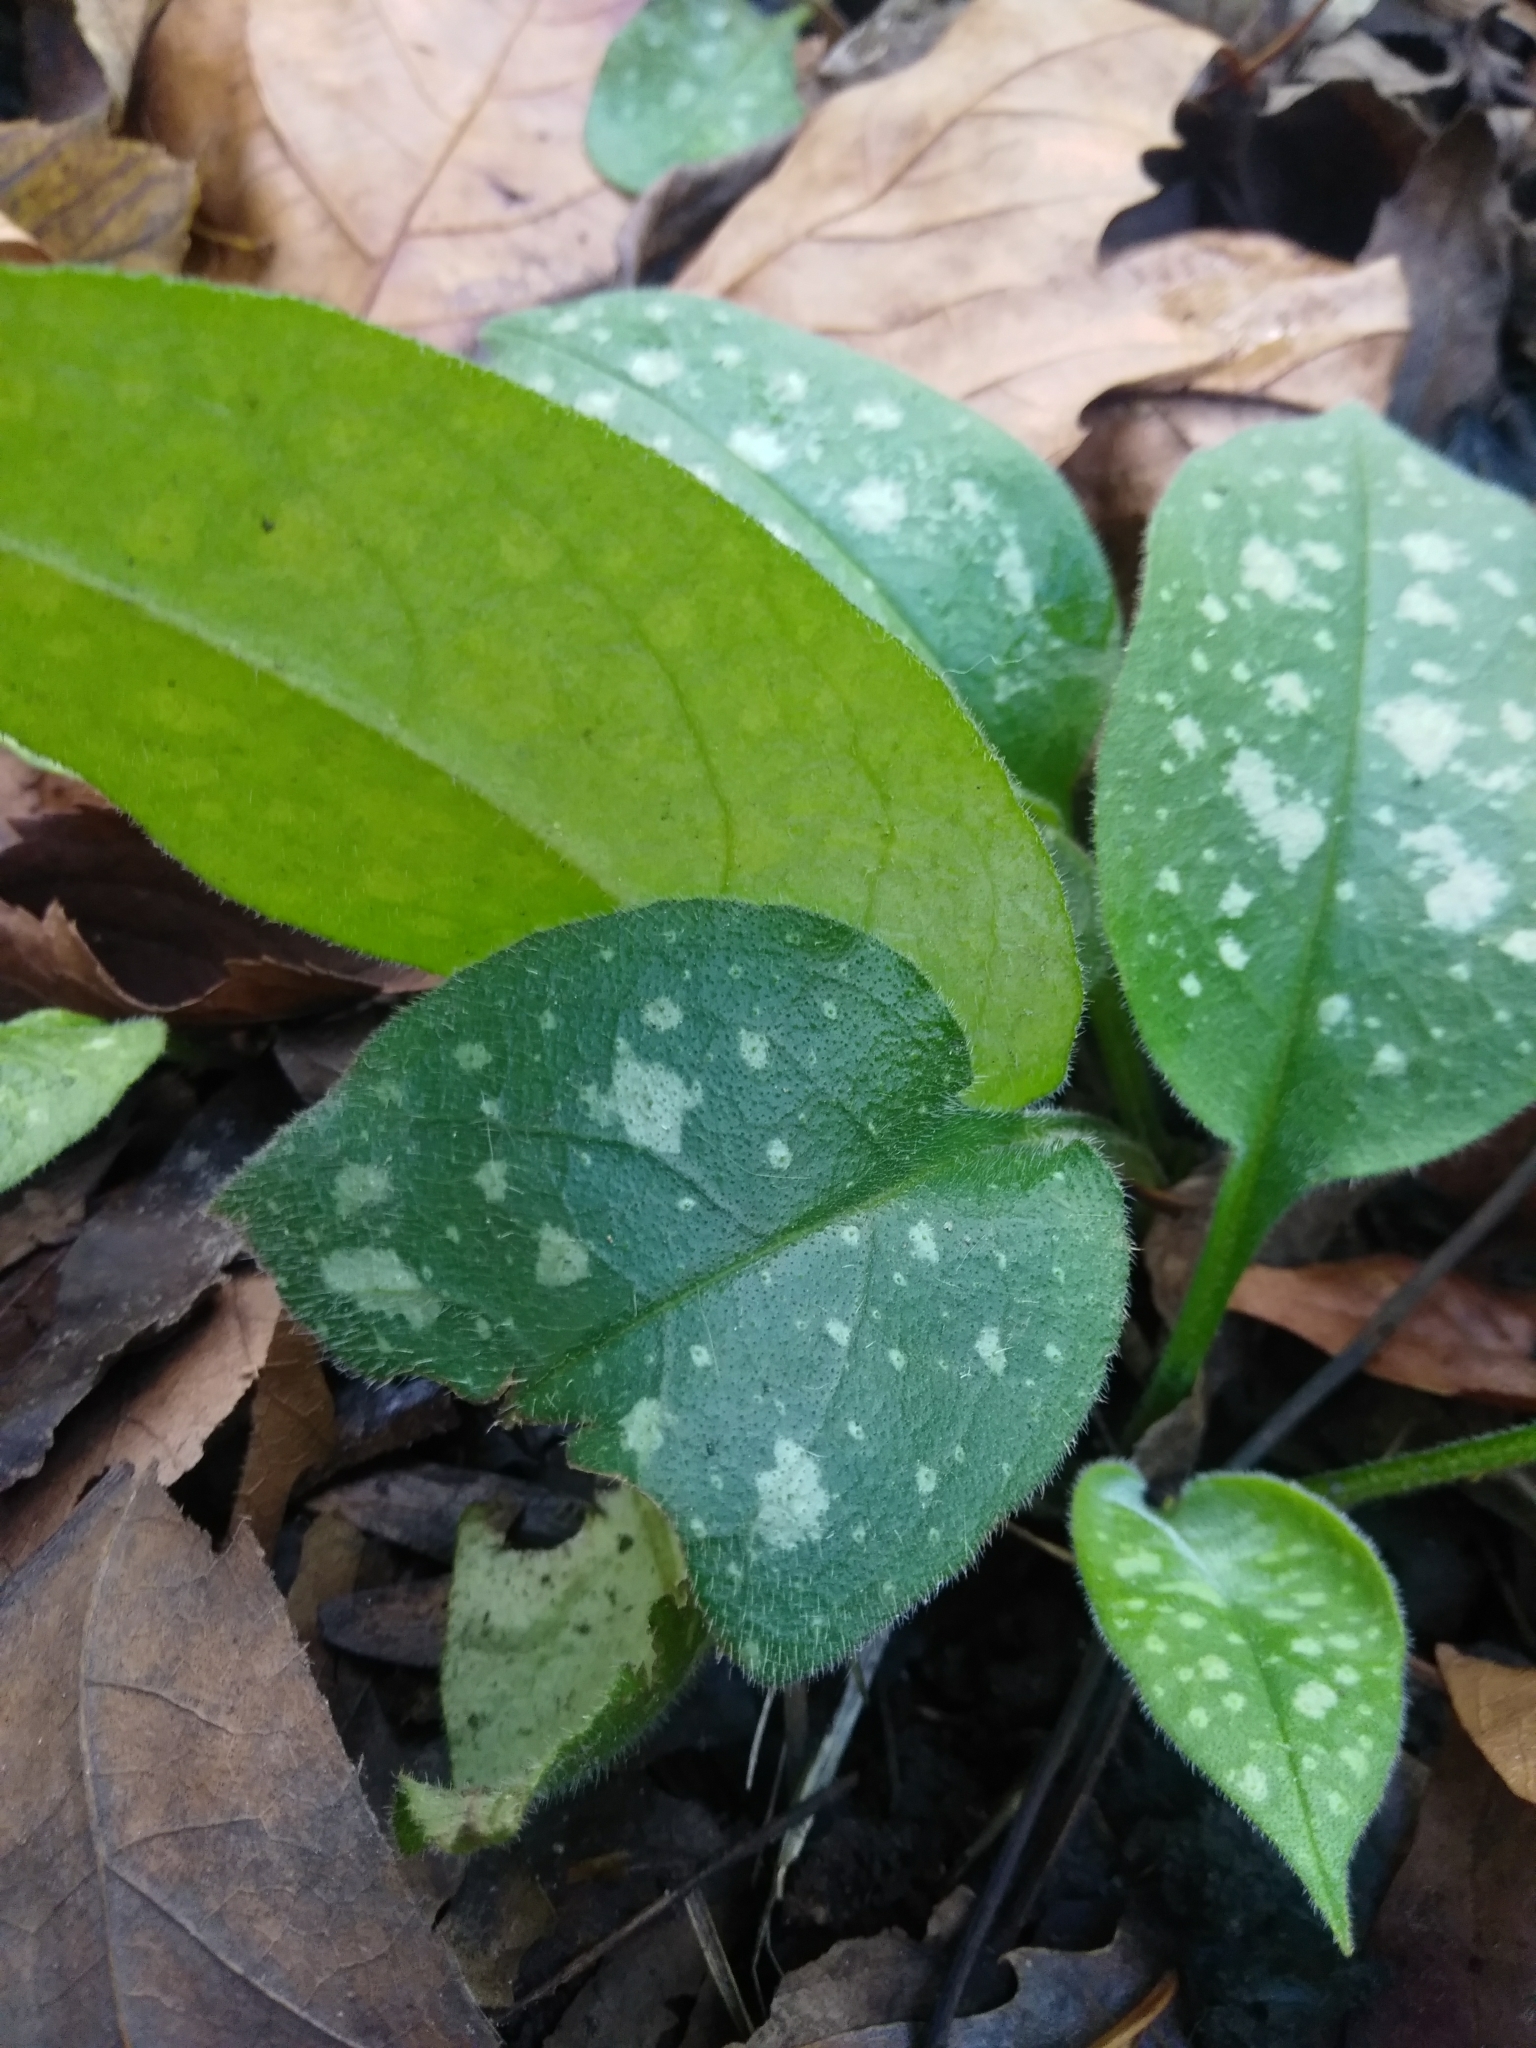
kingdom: Plantae
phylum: Tracheophyta
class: Magnoliopsida
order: Boraginales
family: Boraginaceae
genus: Pulmonaria
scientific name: Pulmonaria officinalis
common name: Lungwort
